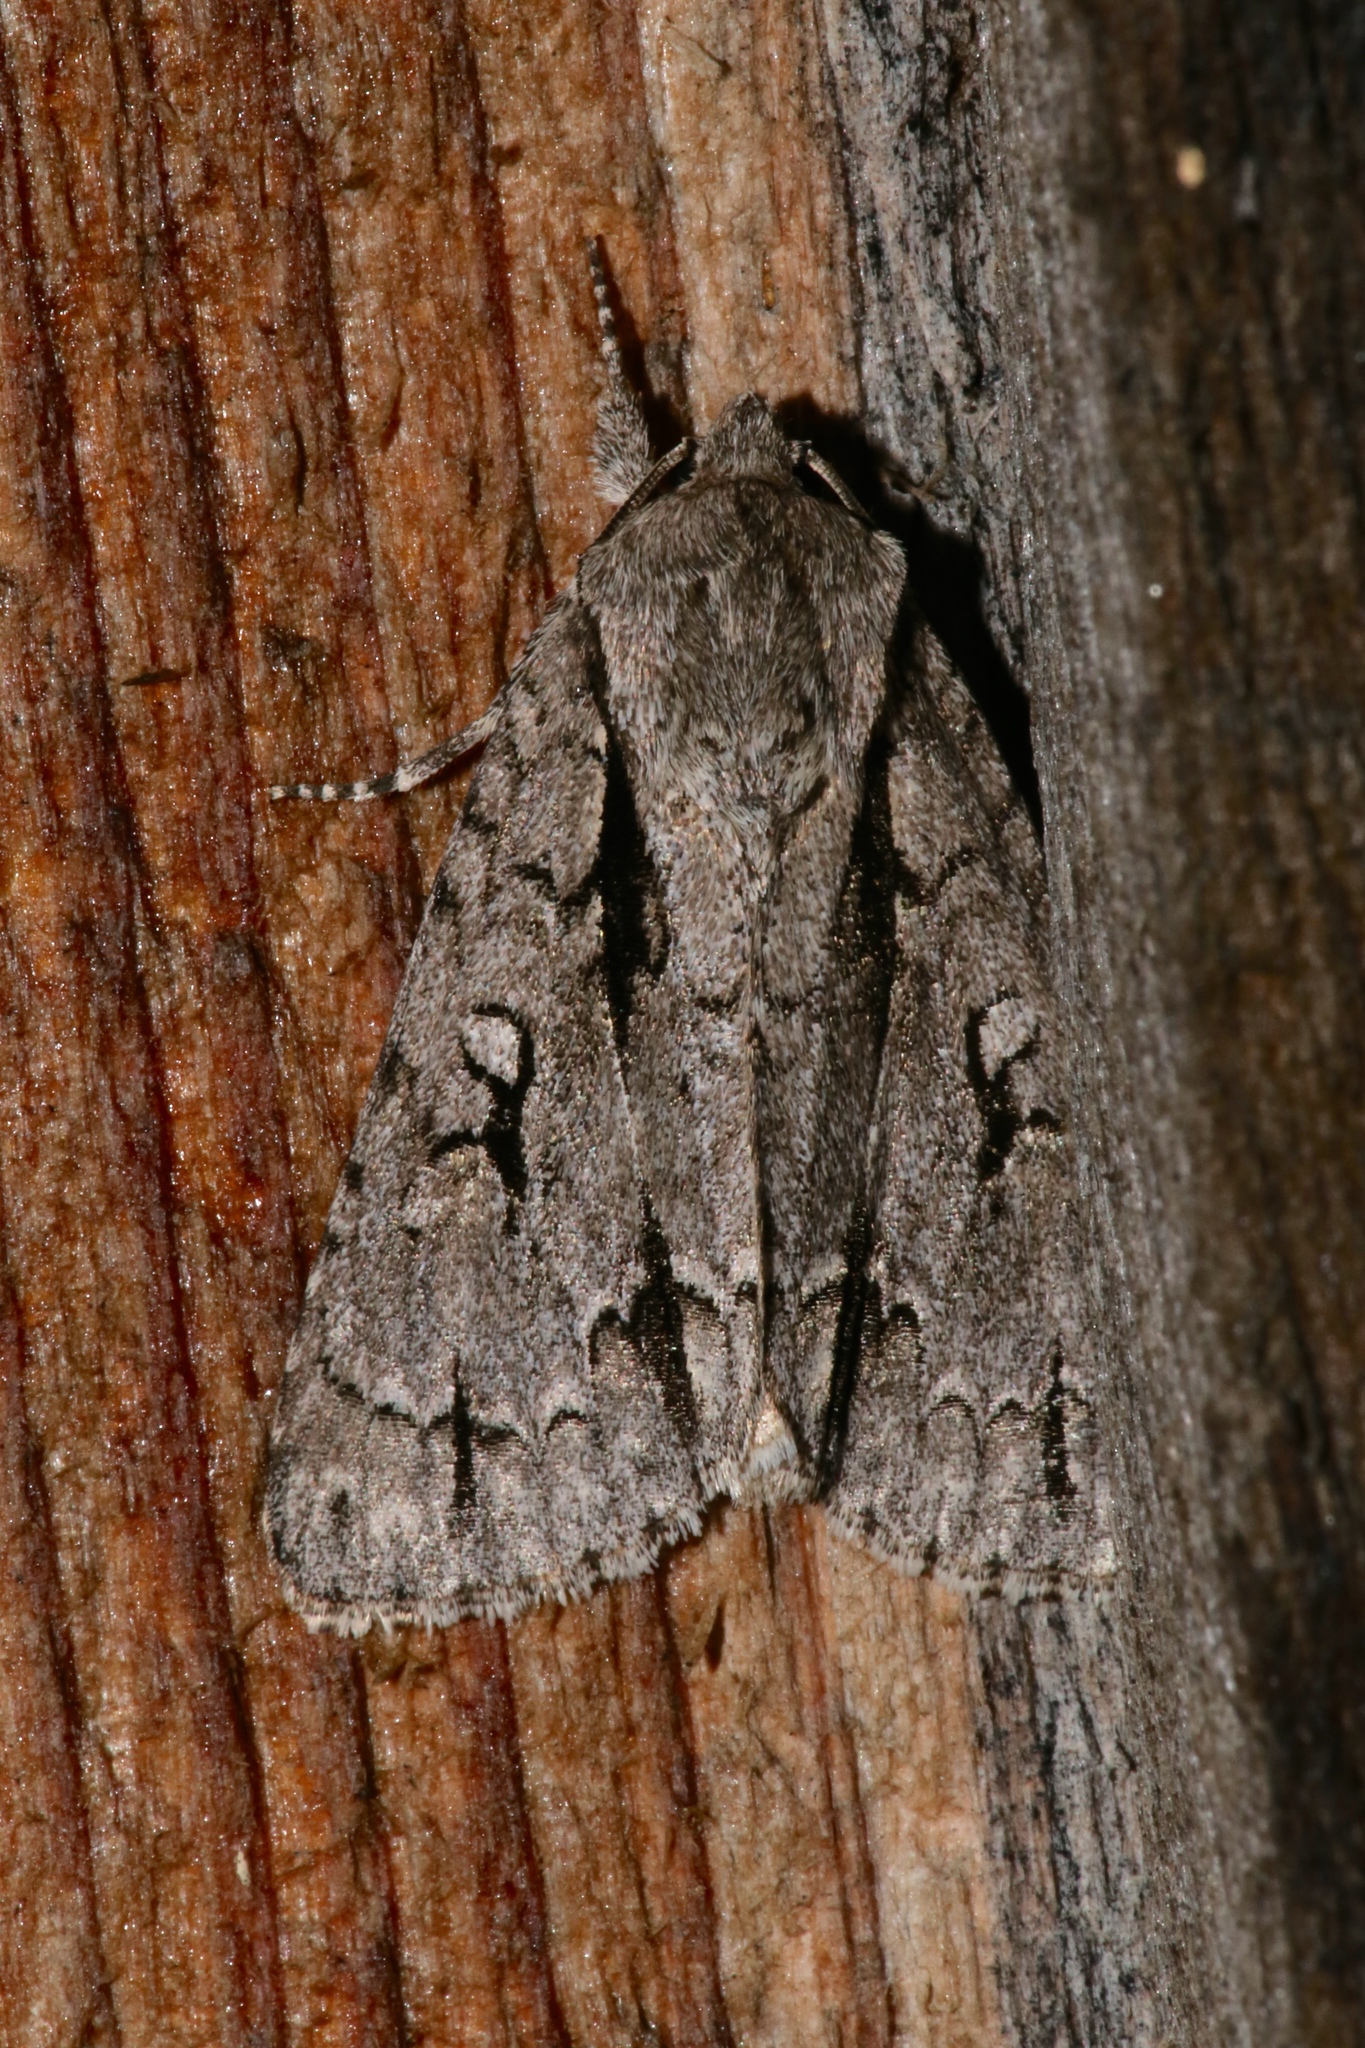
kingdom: Animalia
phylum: Arthropoda
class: Insecta
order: Lepidoptera
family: Noctuidae
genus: Acronicta
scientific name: Acronicta hasta
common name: Cherry dagger
